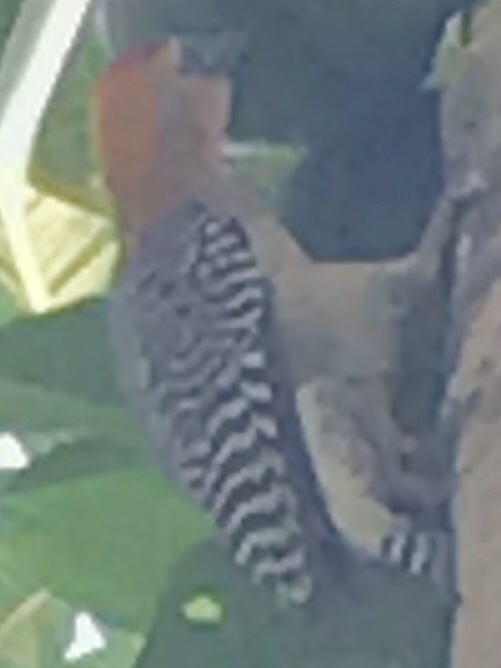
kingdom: Animalia
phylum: Chordata
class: Aves
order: Piciformes
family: Picidae
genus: Melanerpes
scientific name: Melanerpes hoffmannii
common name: Hoffmann's woodpecker
